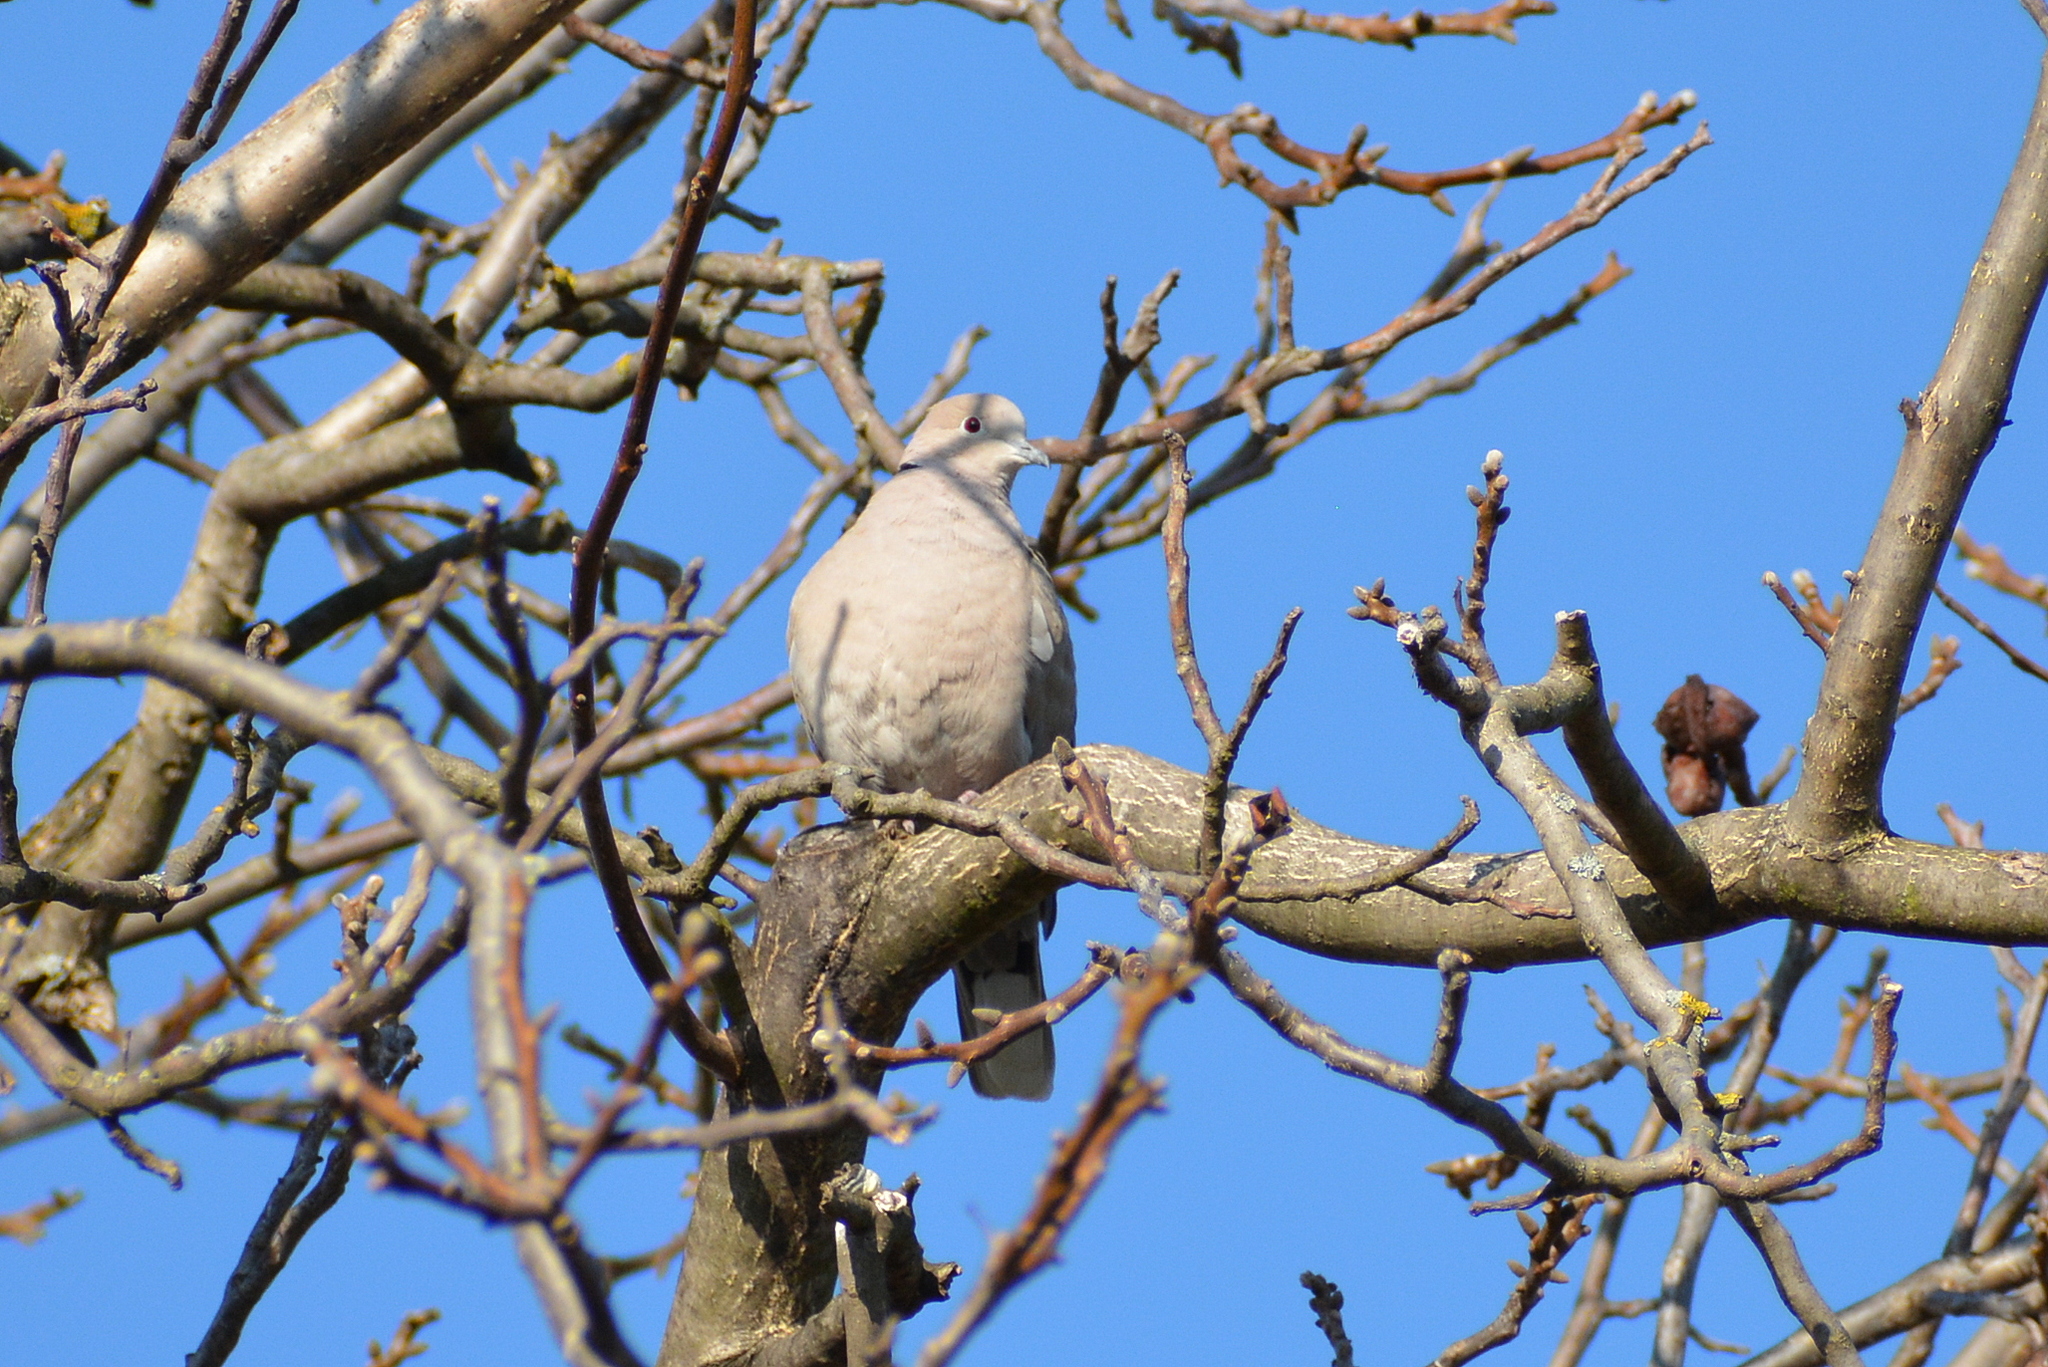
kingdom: Animalia
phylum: Chordata
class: Aves
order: Columbiformes
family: Columbidae
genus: Streptopelia
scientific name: Streptopelia decaocto
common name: Eurasian collared dove
